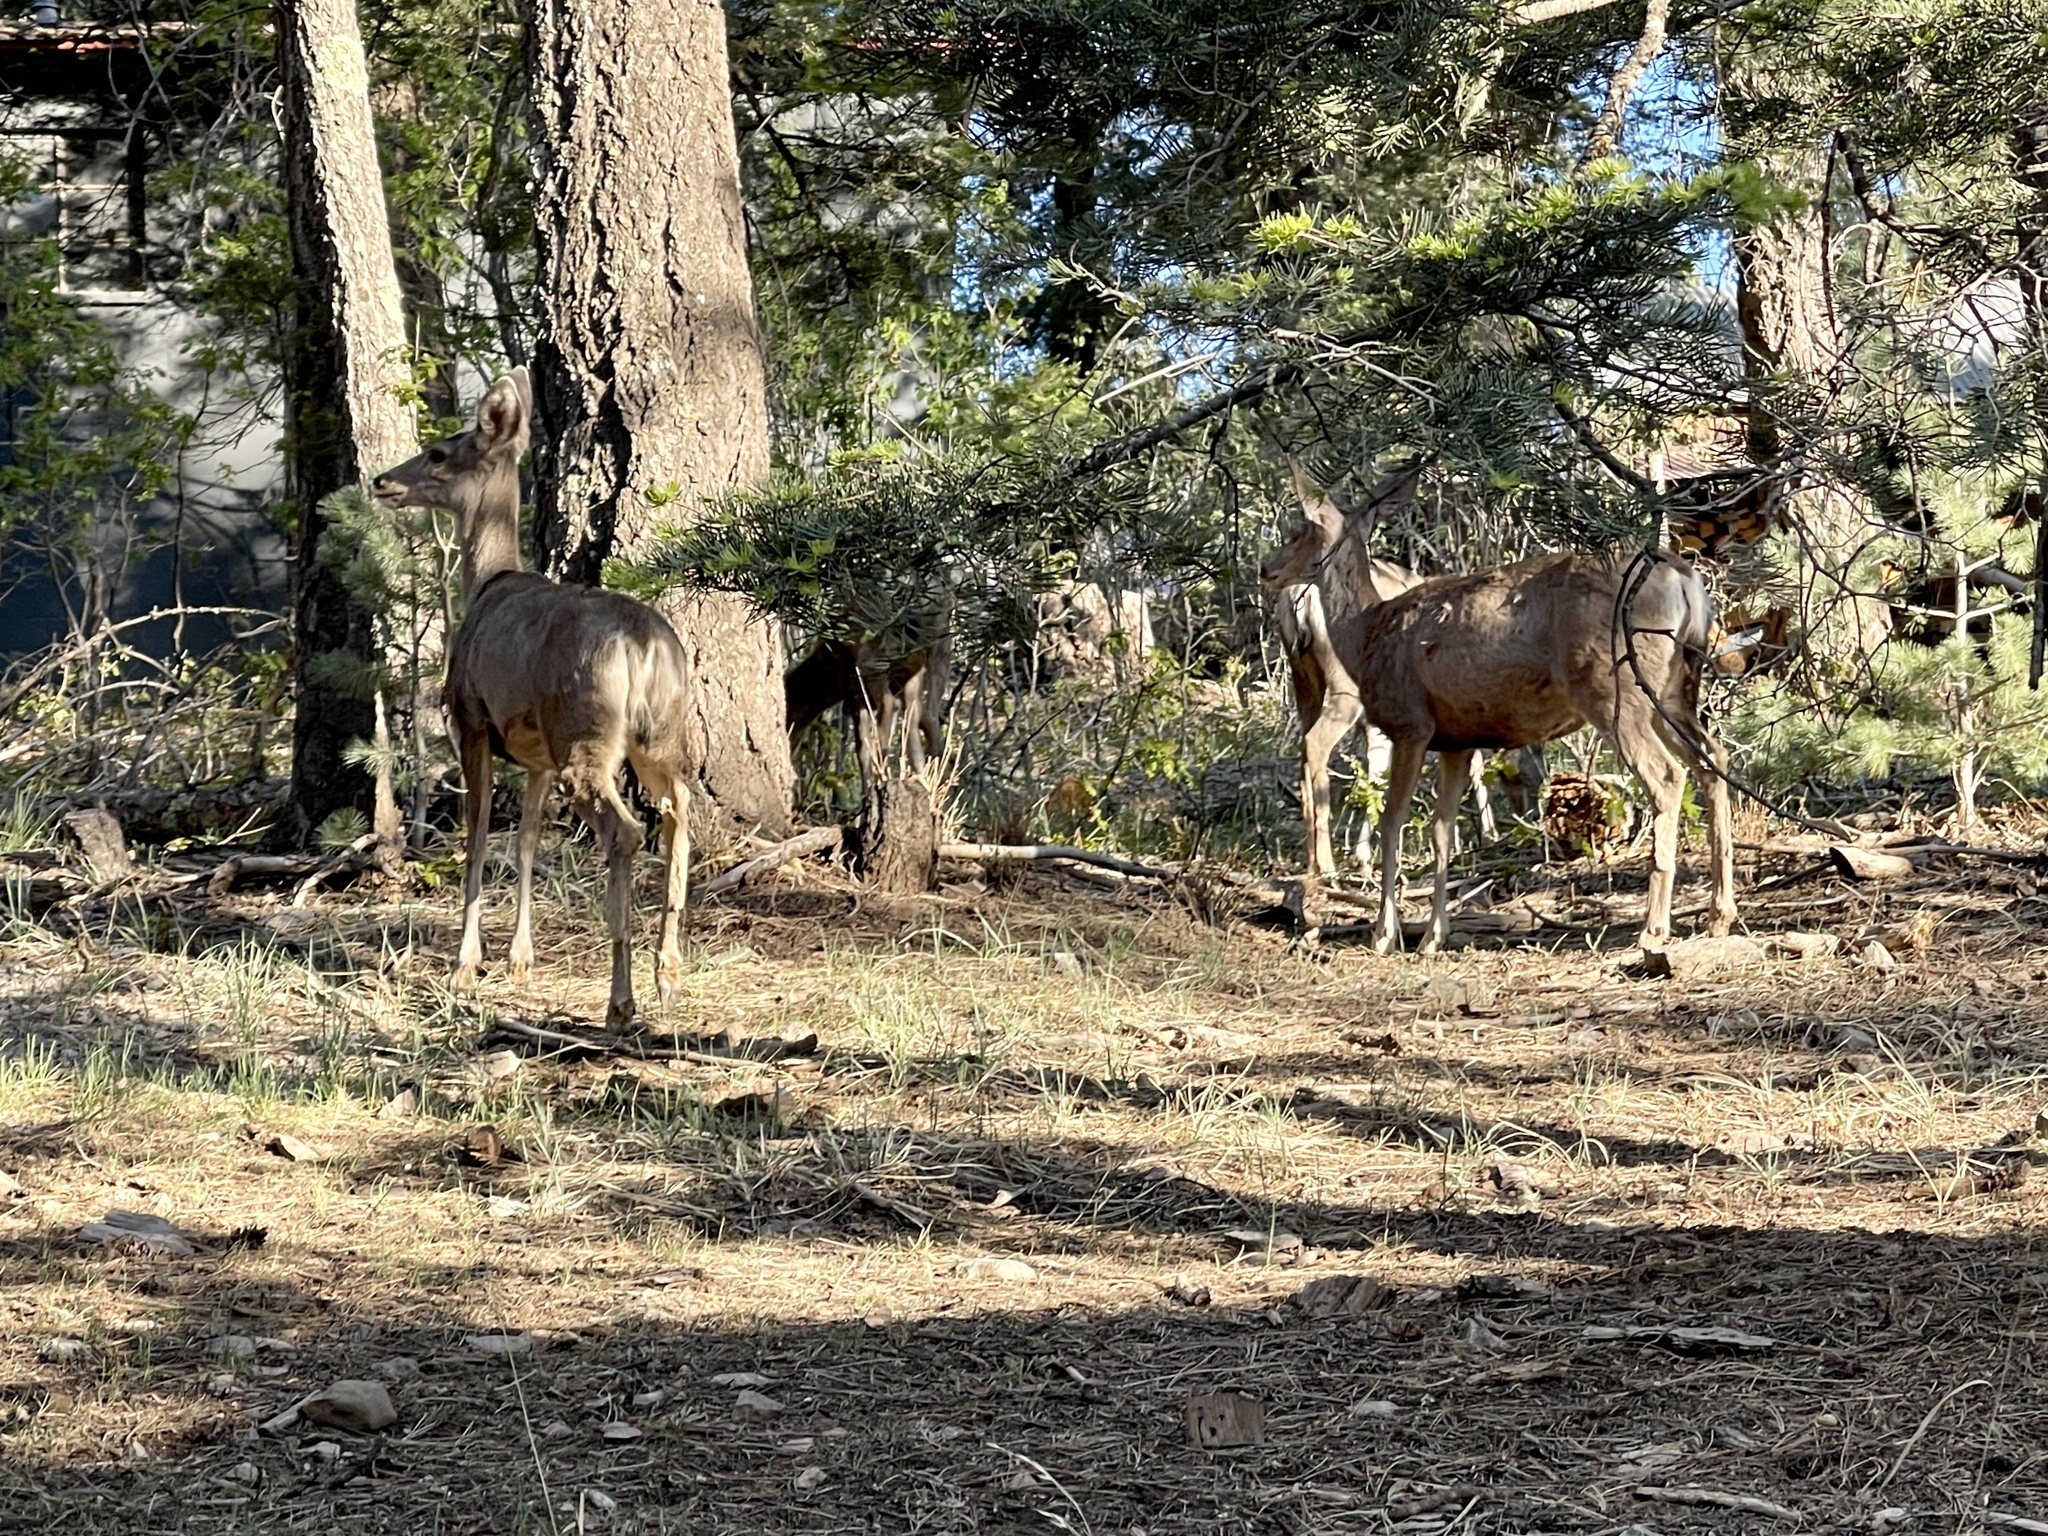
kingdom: Animalia
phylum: Chordata
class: Mammalia
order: Artiodactyla
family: Cervidae
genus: Odocoileus
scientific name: Odocoileus hemionus
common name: Mule deer
